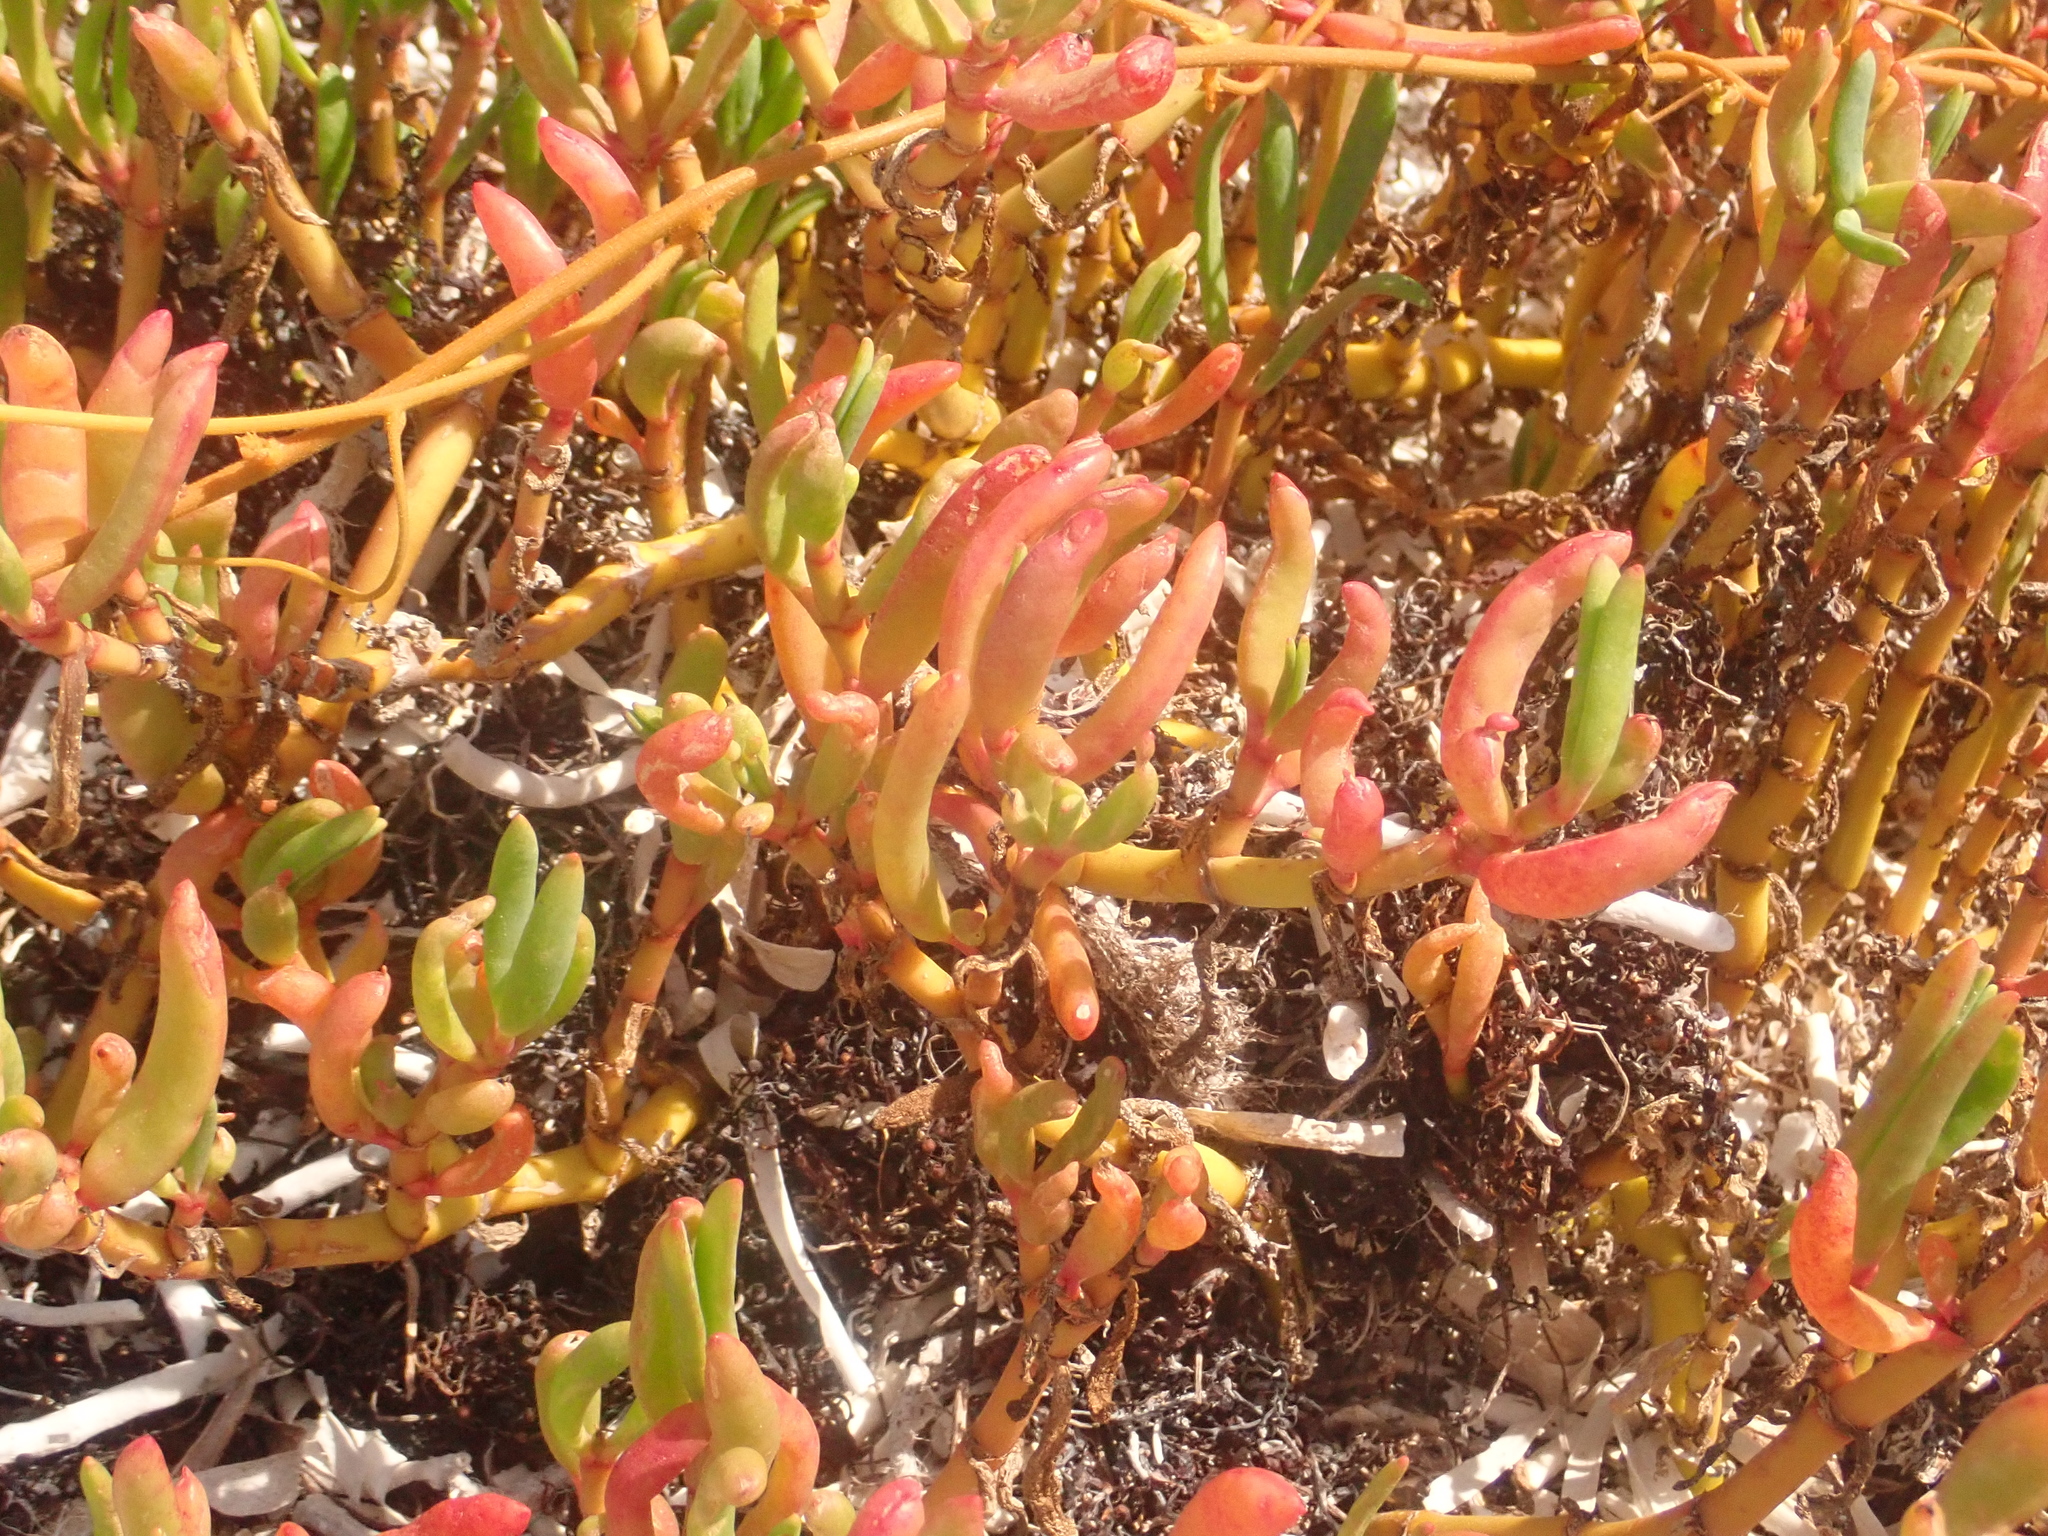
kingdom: Plantae
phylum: Tracheophyta
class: Magnoliopsida
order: Caryophyllales
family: Aizoaceae
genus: Sesuvium
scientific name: Sesuvium portulacastrum
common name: Sea-purslane
